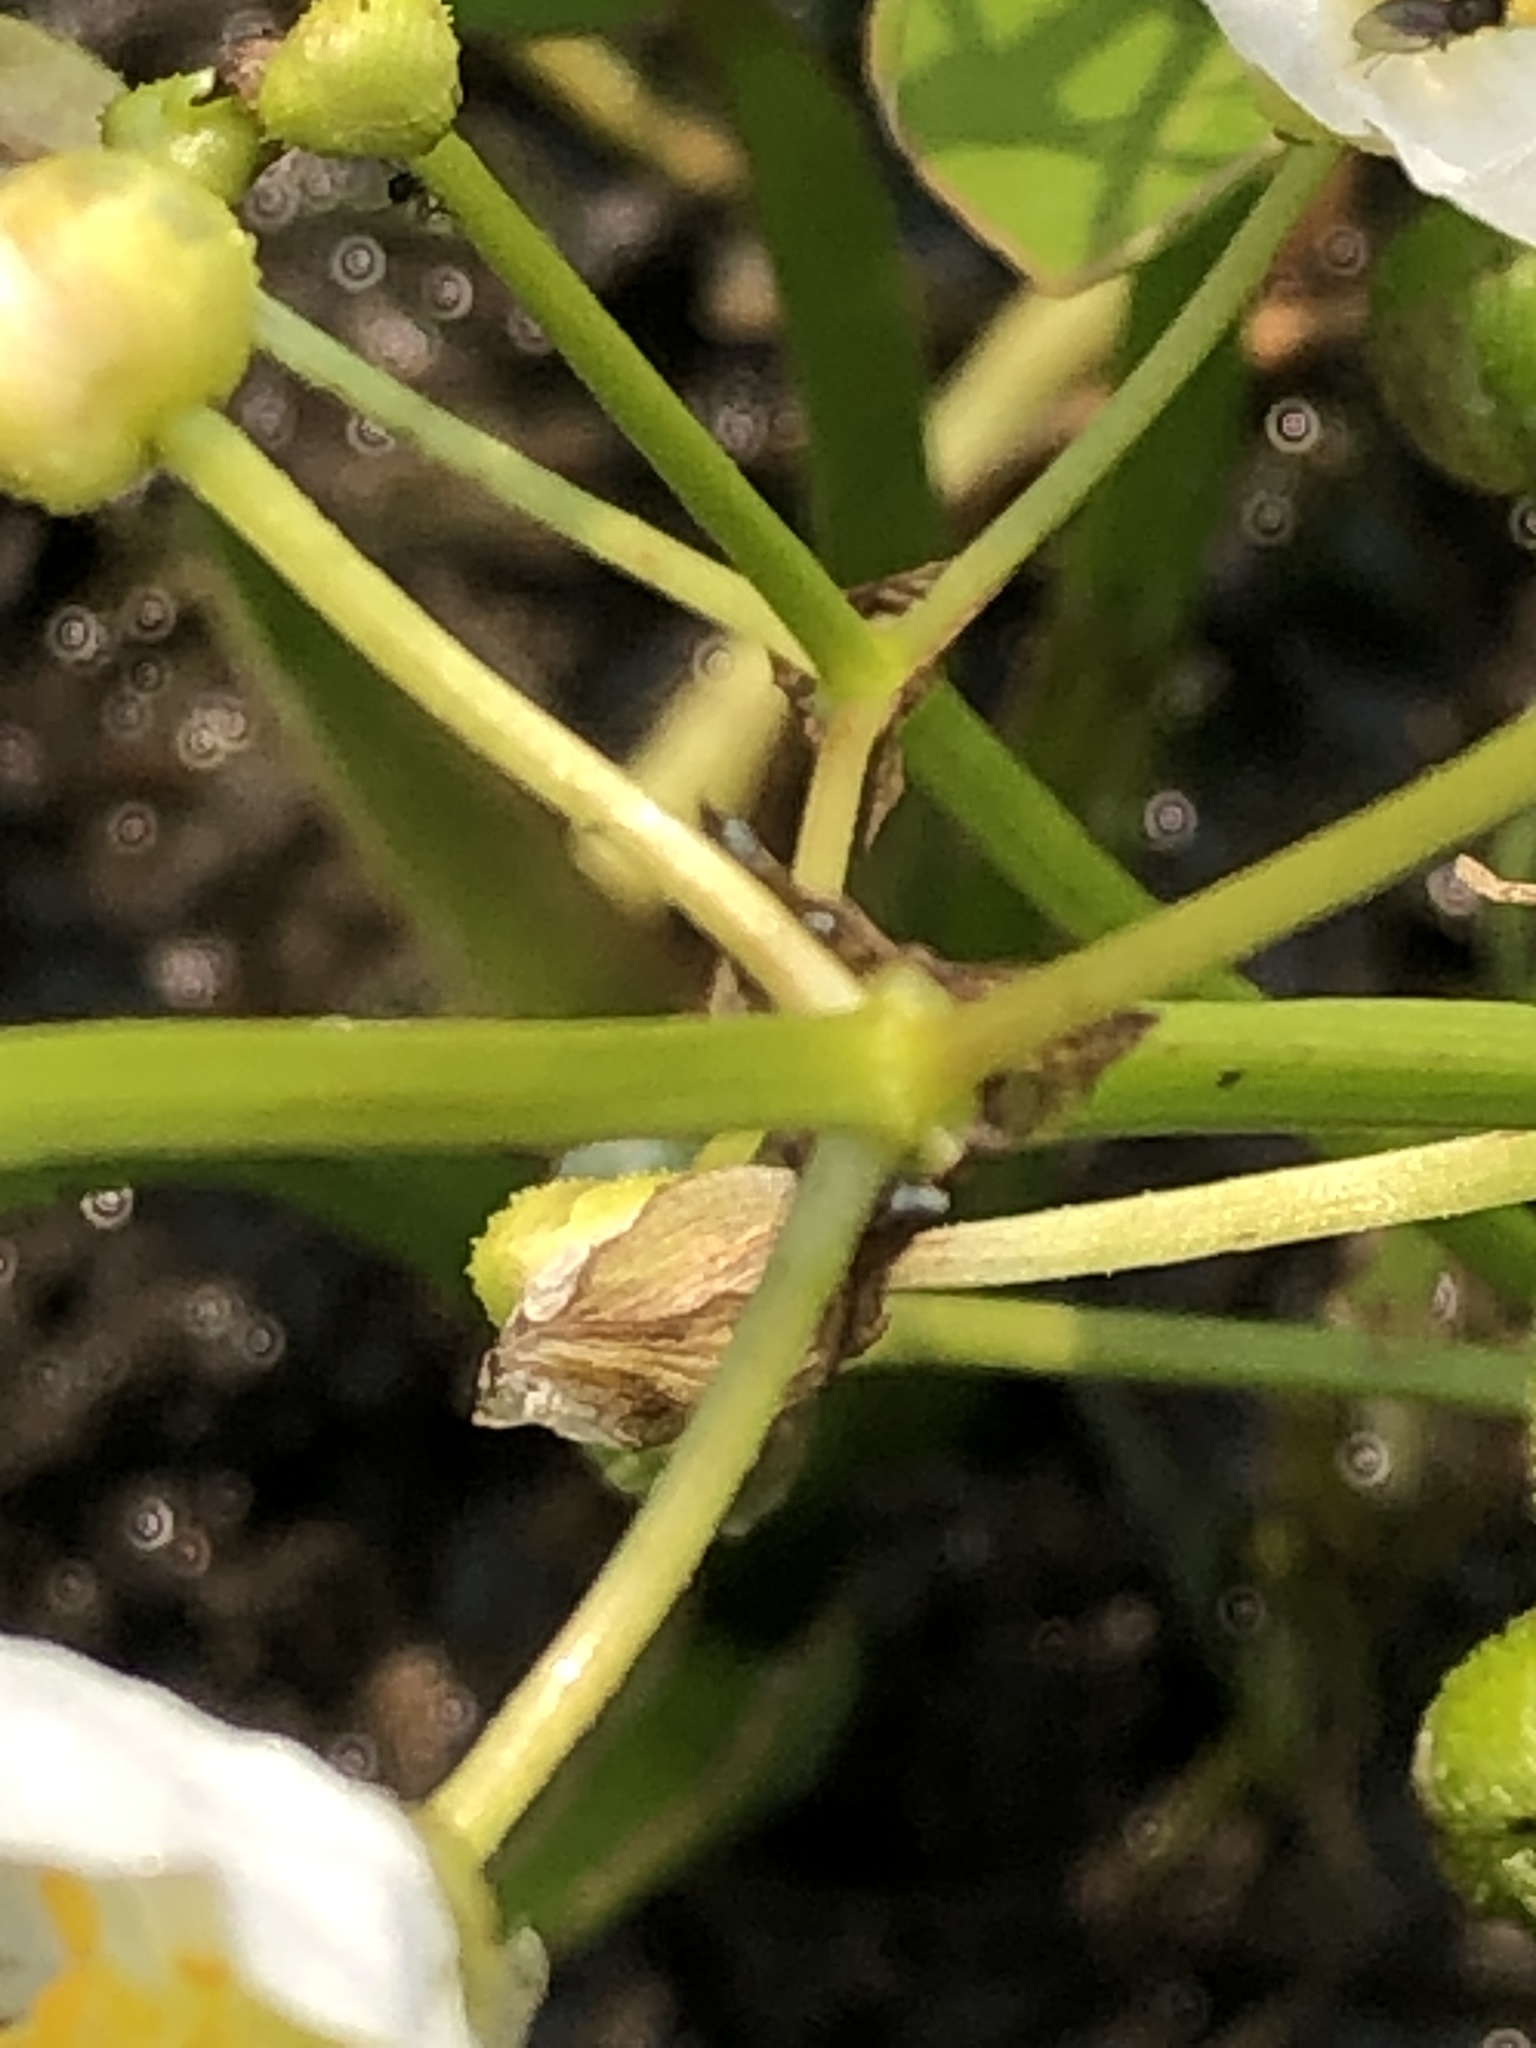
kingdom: Plantae
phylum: Tracheophyta
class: Liliopsida
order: Alismatales
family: Alismataceae
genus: Sagittaria
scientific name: Sagittaria cristata
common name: Crested arrowhead
